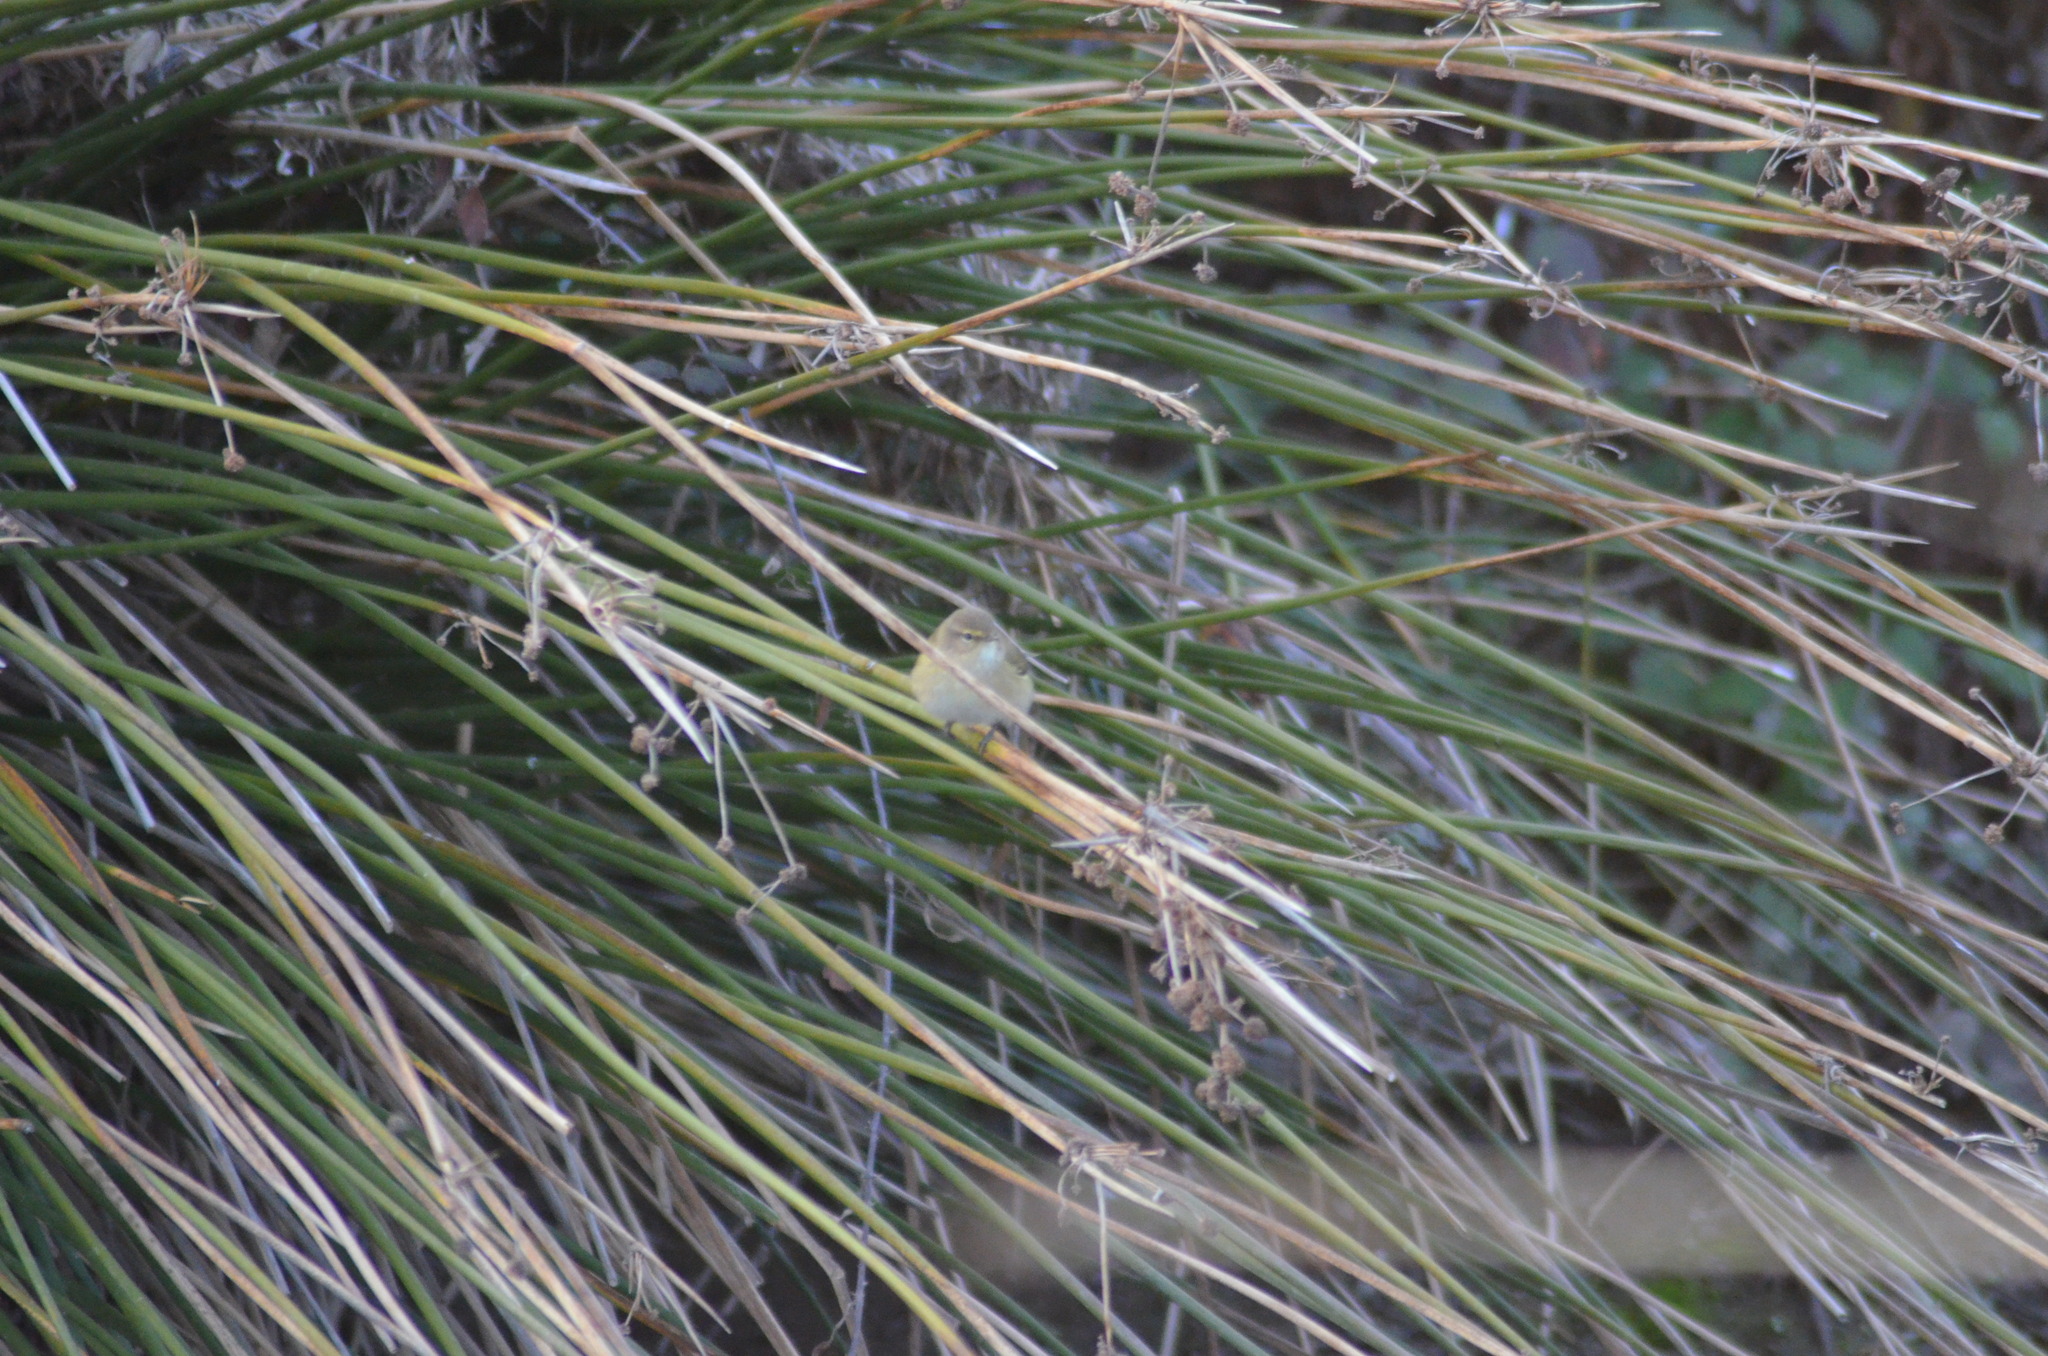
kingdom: Animalia
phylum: Chordata
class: Aves
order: Passeriformes
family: Phylloscopidae
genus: Phylloscopus
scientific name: Phylloscopus collybita
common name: Common chiffchaff
